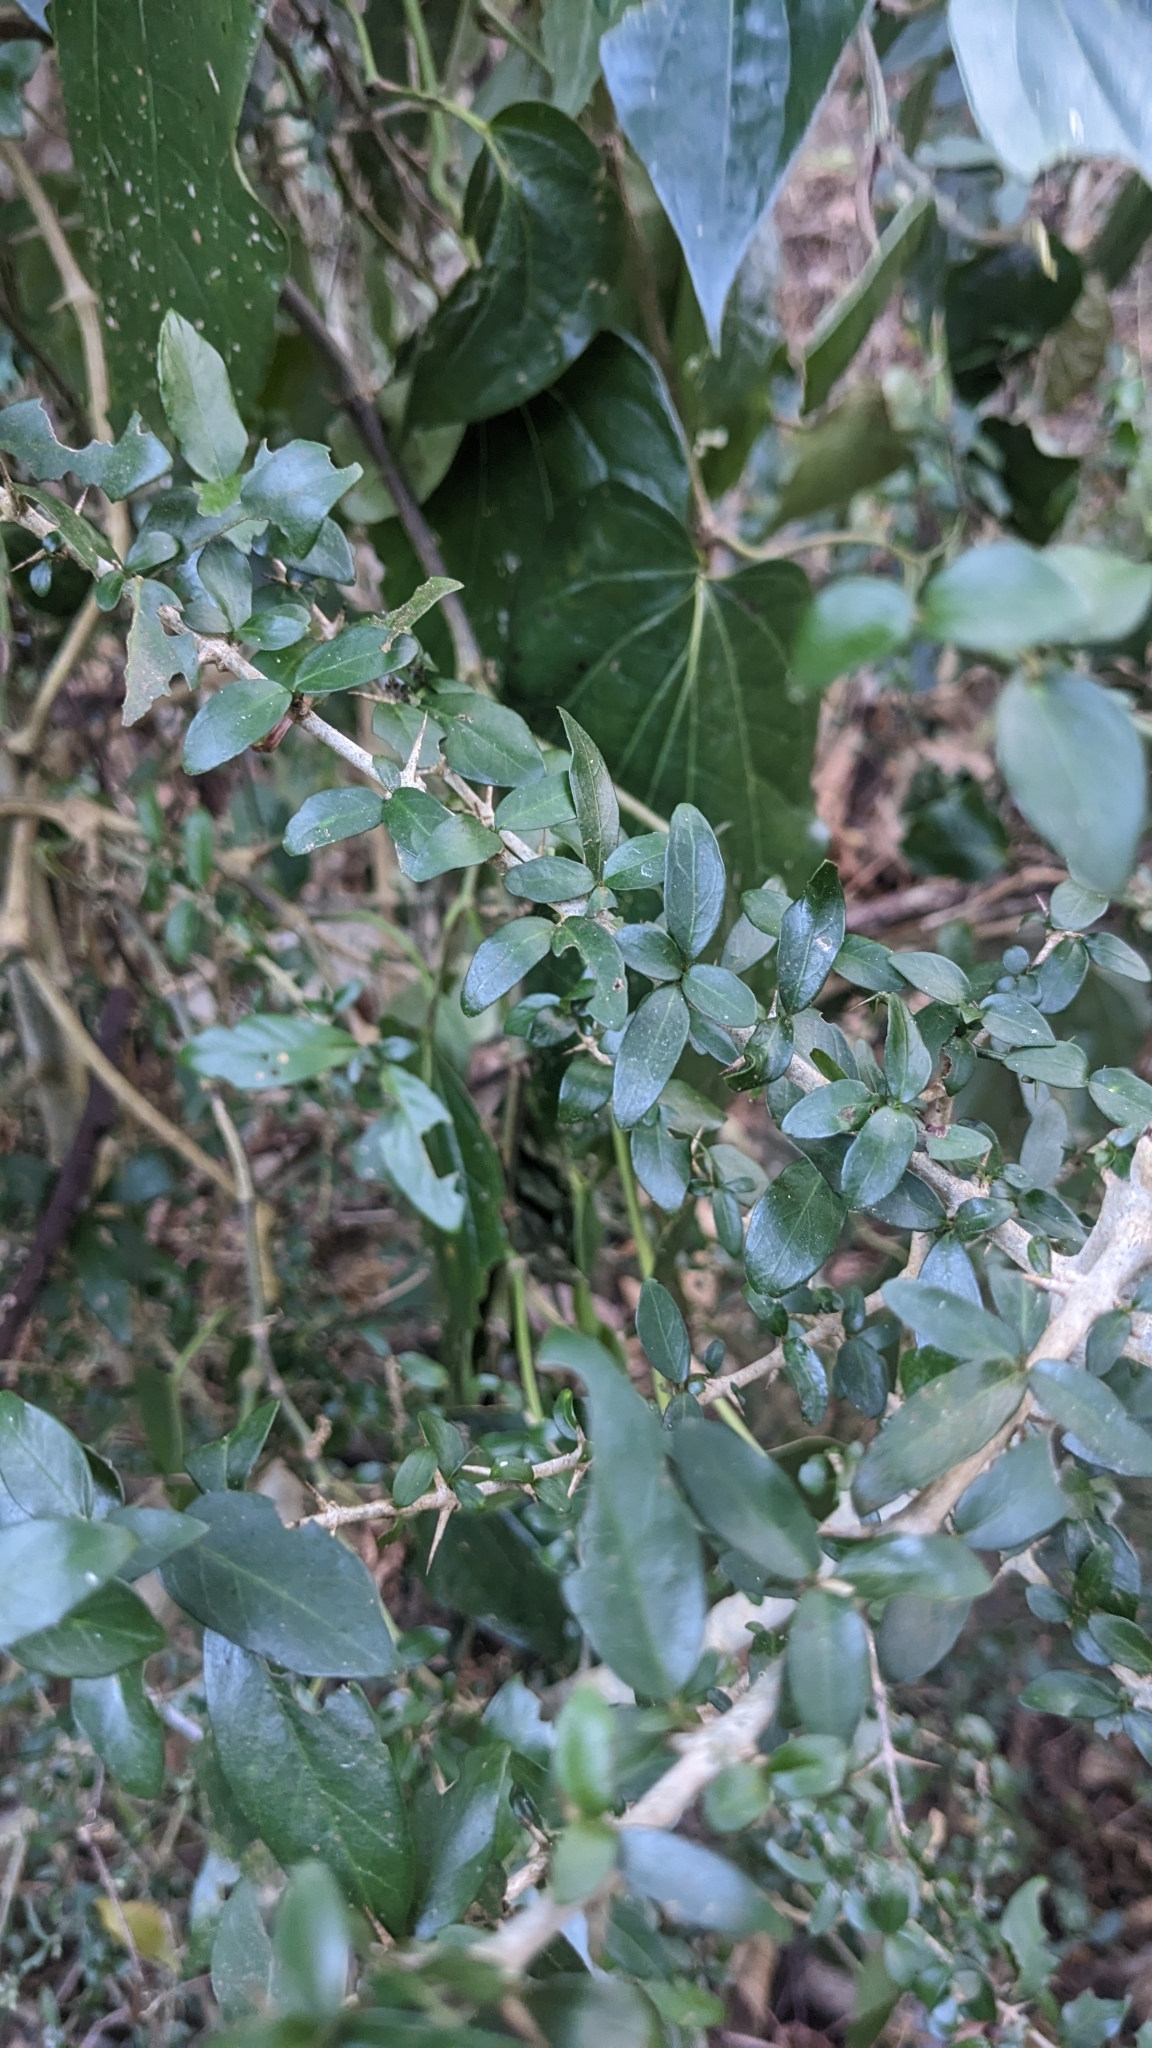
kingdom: Plantae
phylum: Tracheophyta
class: Magnoliopsida
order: Gentianales
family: Rubiaceae
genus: Benkara
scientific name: Benkara sinensis
